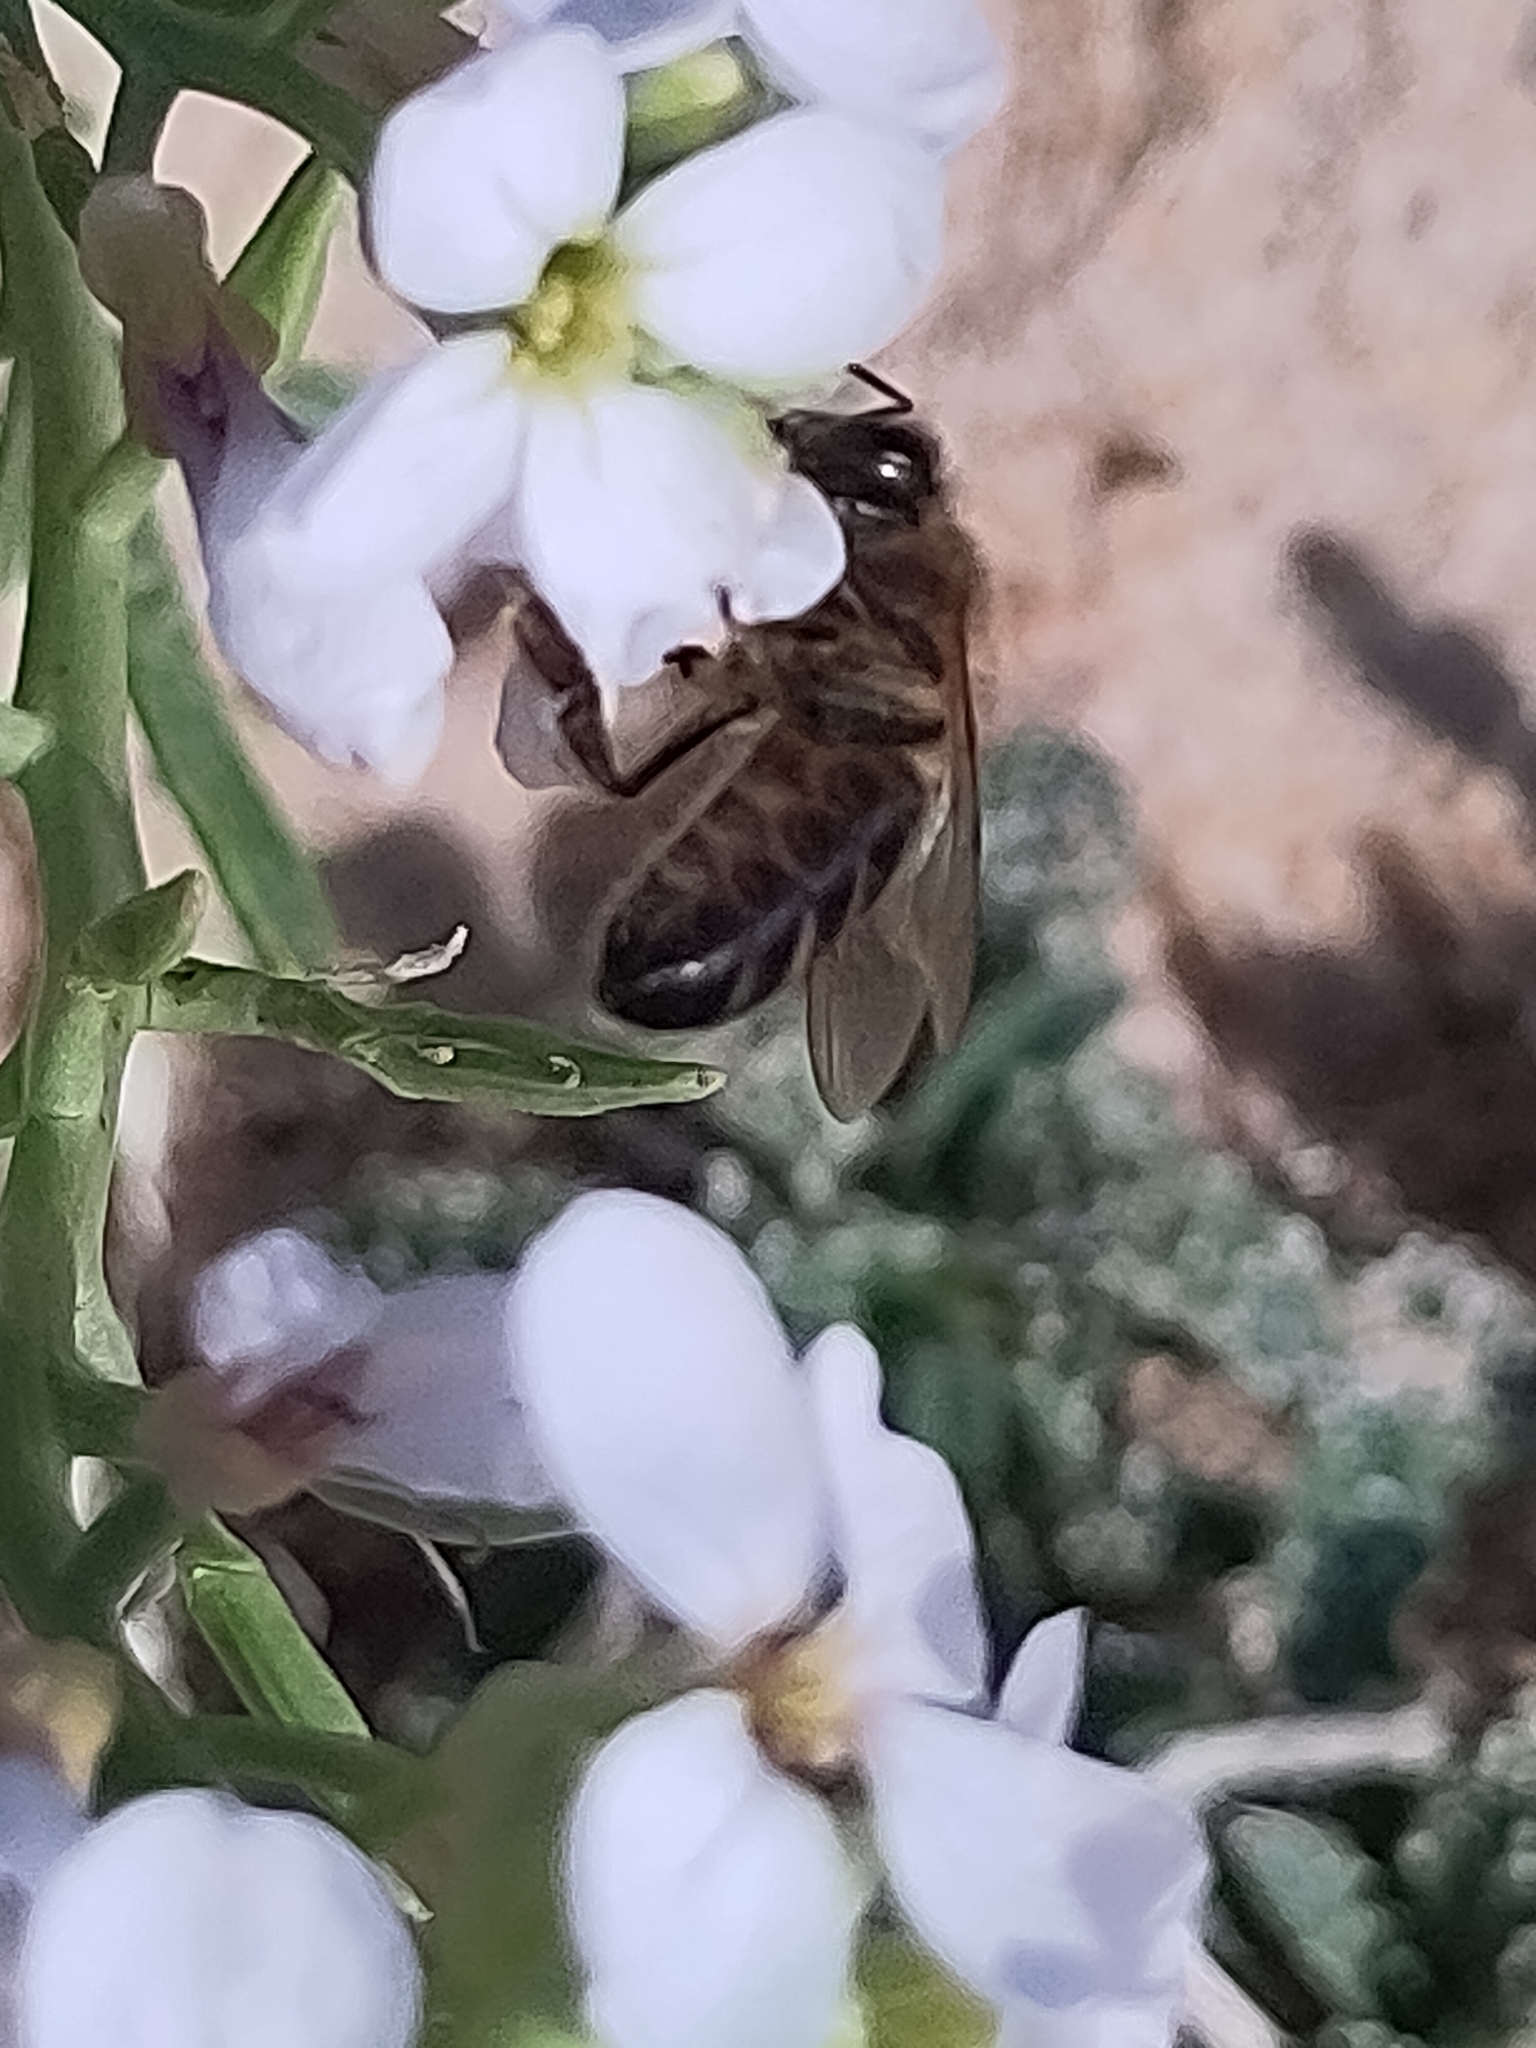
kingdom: Animalia
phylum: Arthropoda
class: Insecta
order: Hymenoptera
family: Apidae
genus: Apis
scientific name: Apis mellifera
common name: Honey bee
